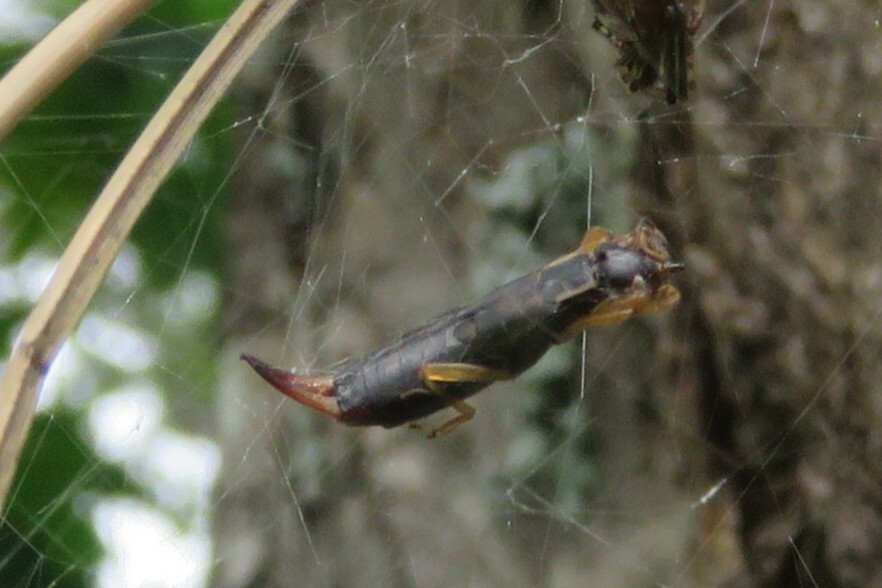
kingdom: Animalia
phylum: Arthropoda
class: Insecta
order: Dermaptera
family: Forficulidae
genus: Forficula
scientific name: Forficula auricularia
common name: European earwig
